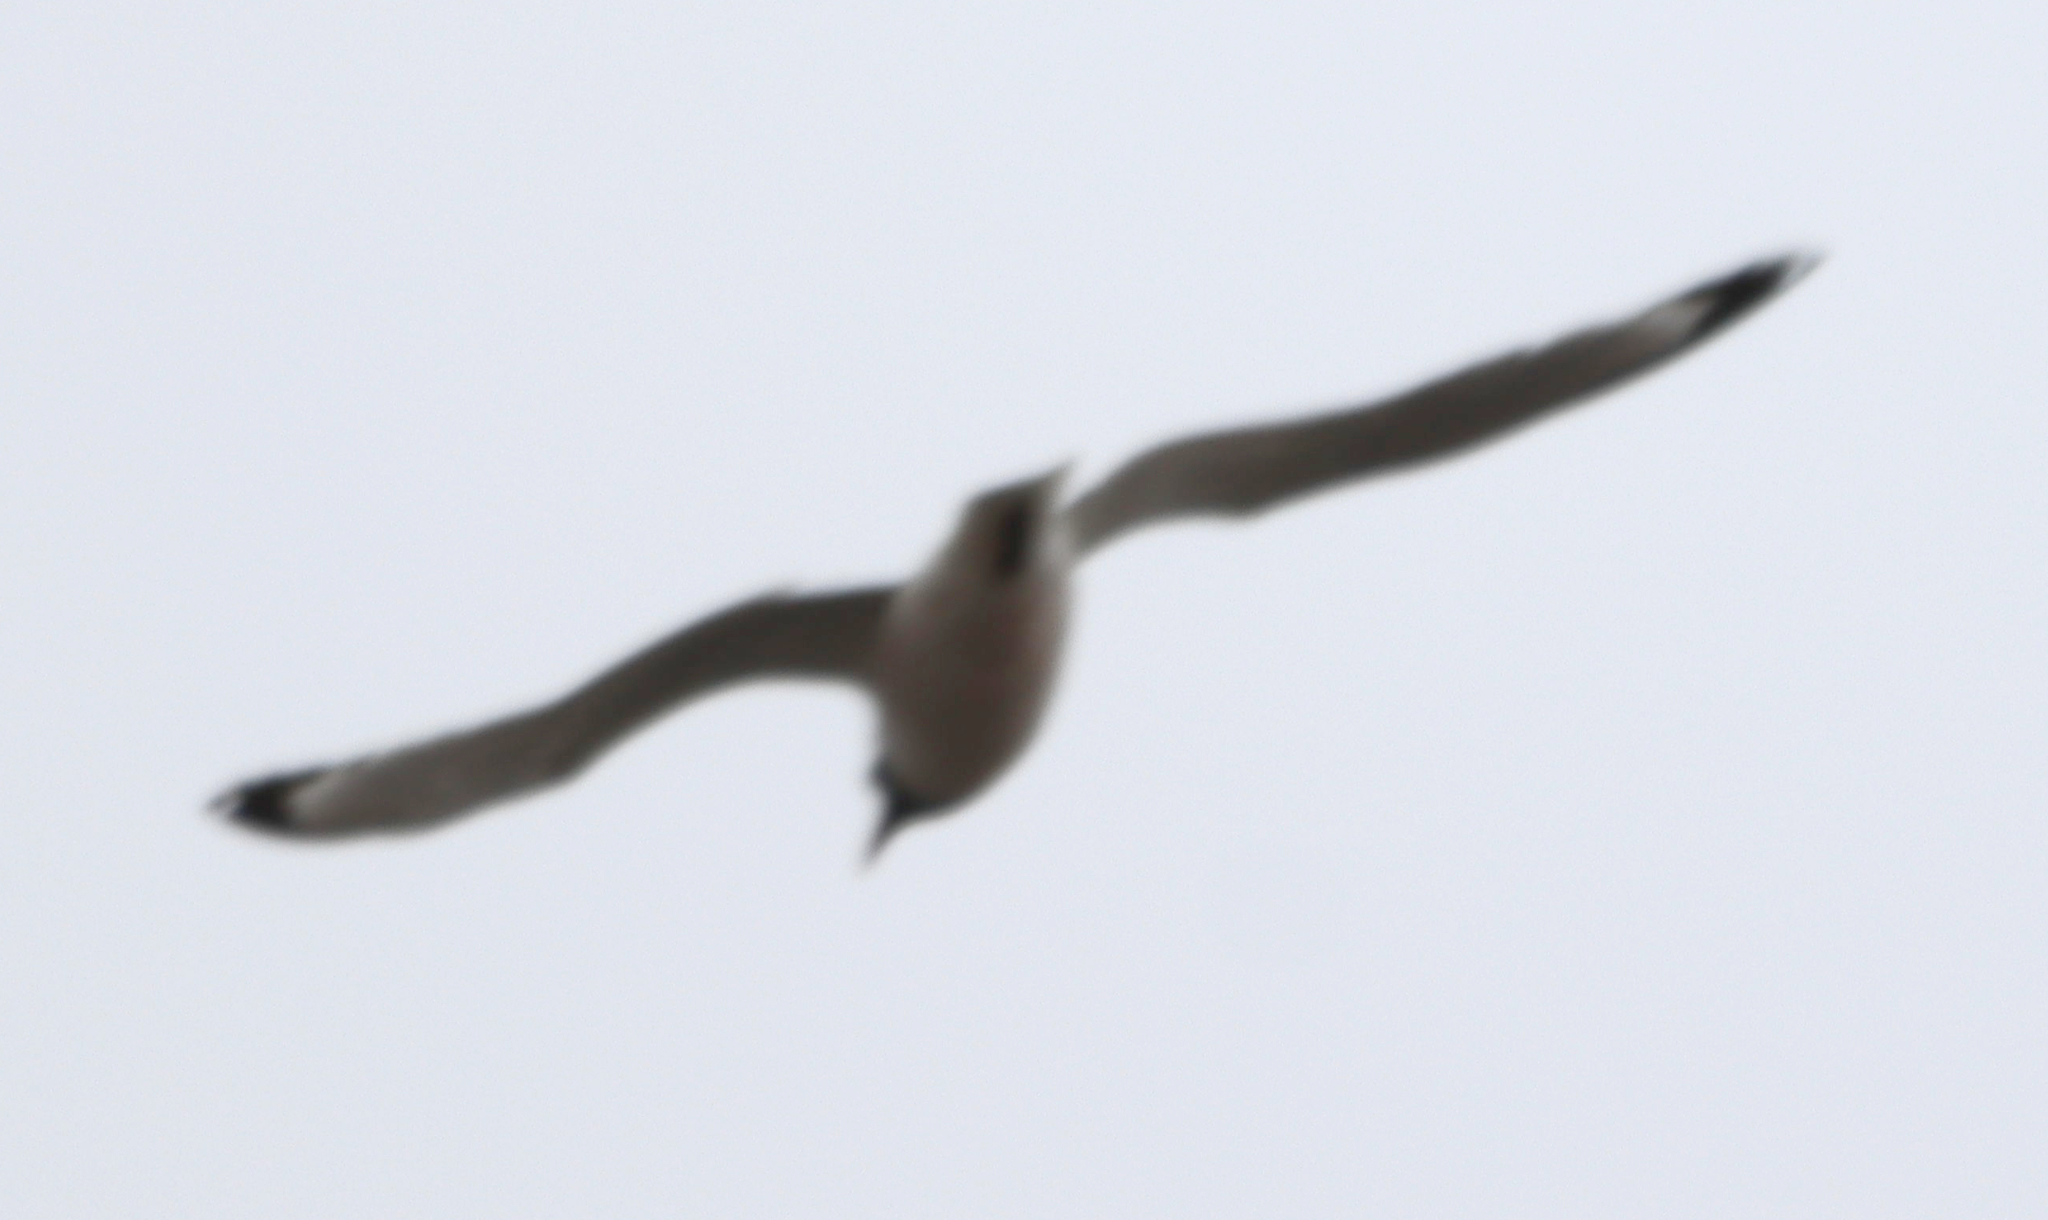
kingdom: Animalia
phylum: Chordata
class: Aves
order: Charadriiformes
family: Laridae
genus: Leucophaeus
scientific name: Leucophaeus pipixcan
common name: Franklin's gull
